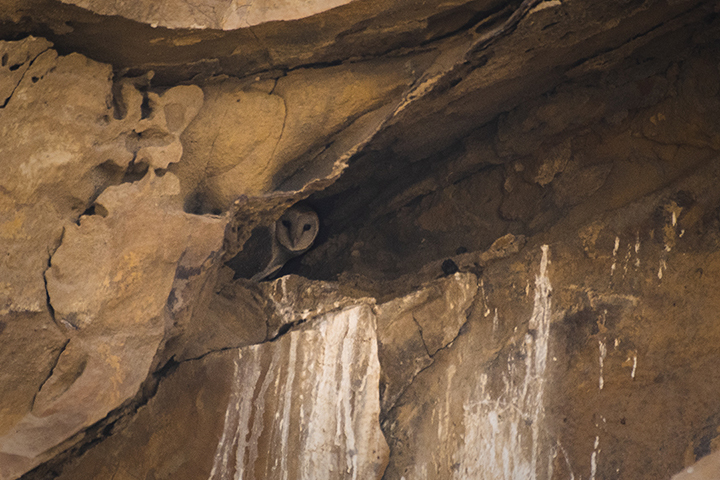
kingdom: Animalia
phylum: Chordata
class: Aves
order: Strigiformes
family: Tytonidae
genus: Tyto
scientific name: Tyto alba
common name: Barn owl
